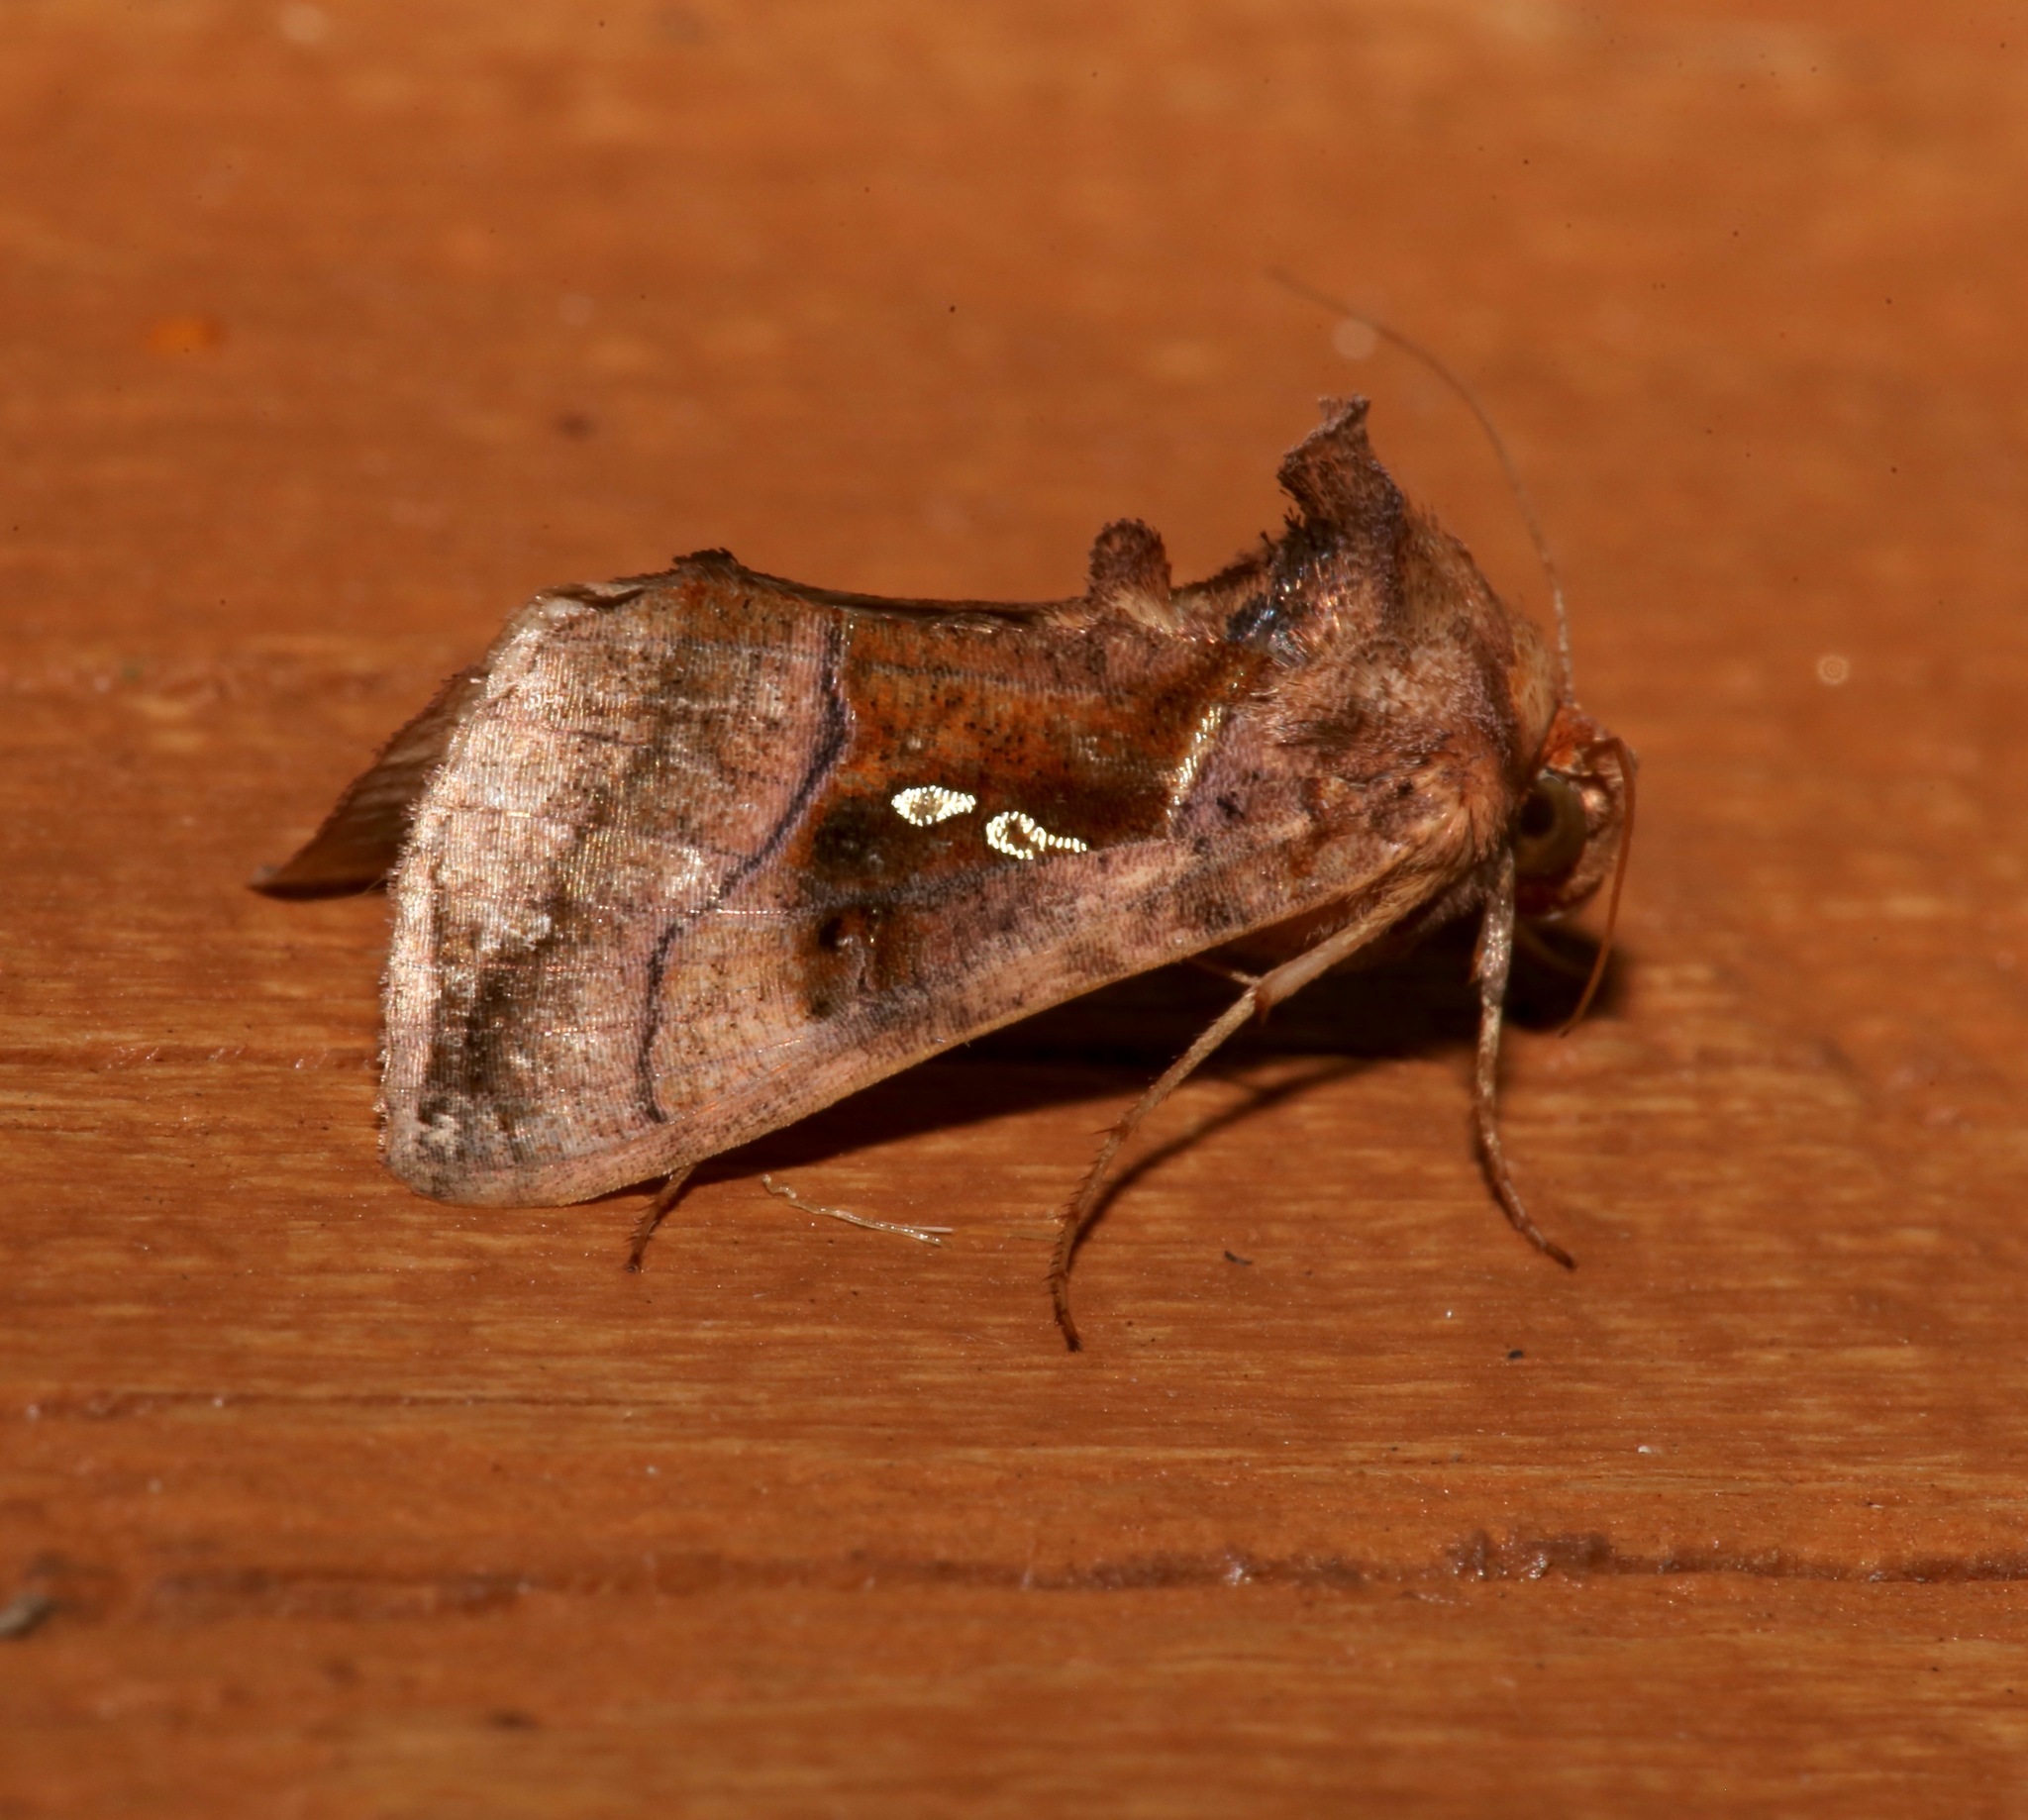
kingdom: Animalia
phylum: Arthropoda
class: Insecta
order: Lepidoptera
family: Noctuidae
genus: Enigmogramma
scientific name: Enigmogramma basigera
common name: Pink-washed looper moth
